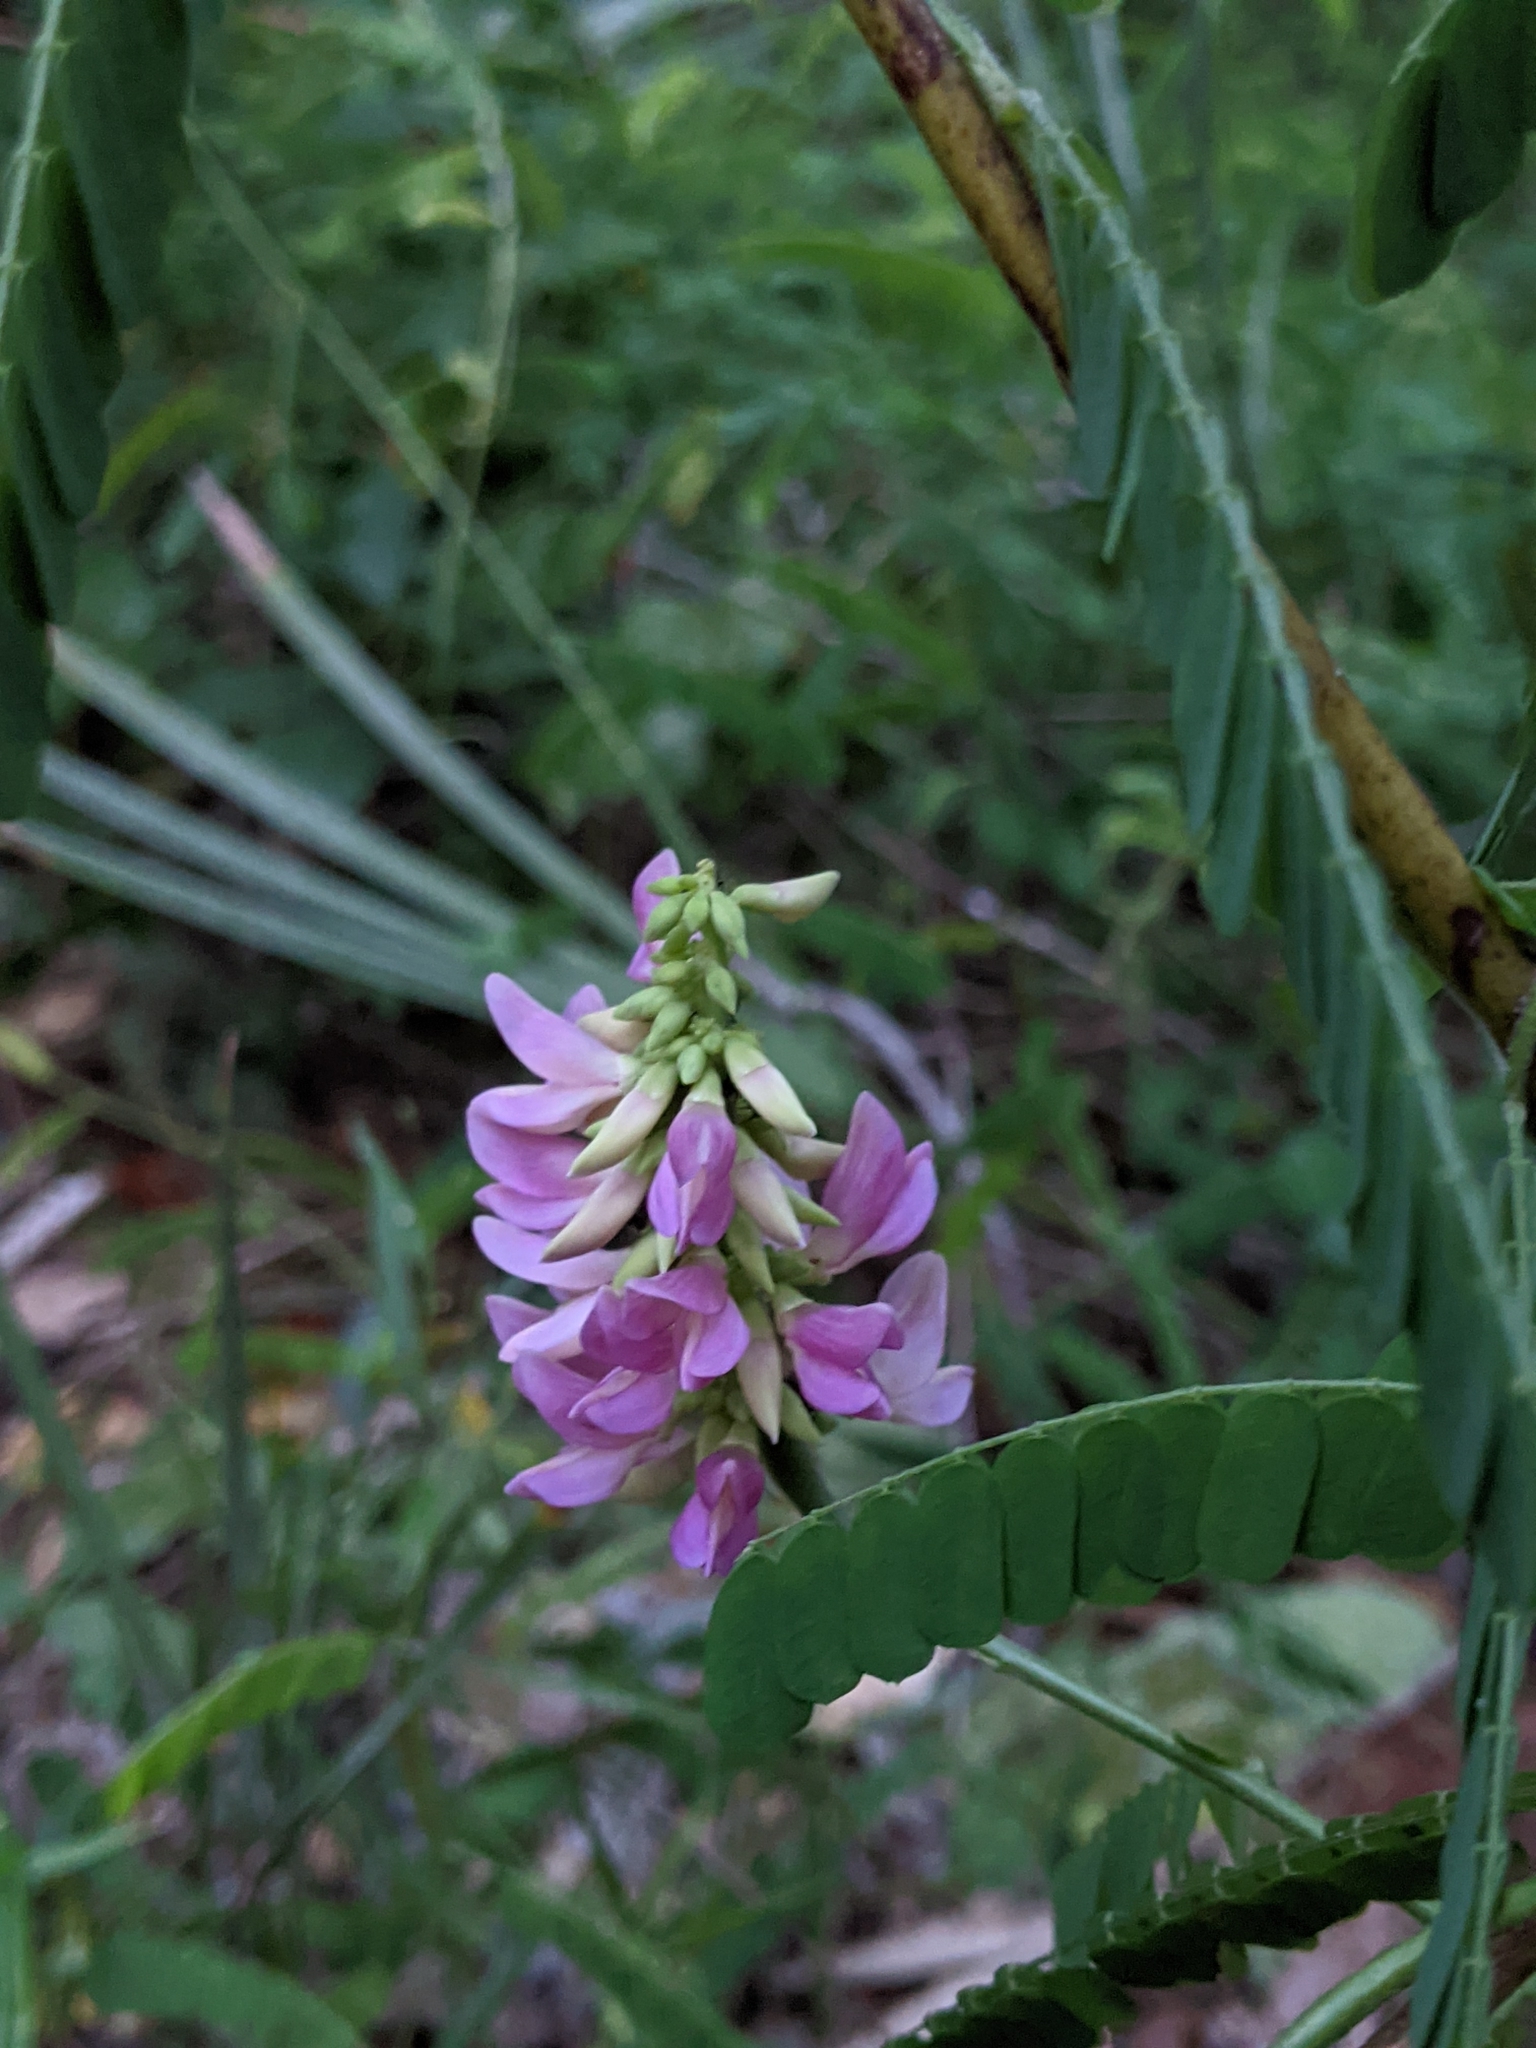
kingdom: Plantae
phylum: Tracheophyta
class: Magnoliopsida
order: Fabales
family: Fabaceae
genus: Abrus
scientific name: Abrus precatorius
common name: Rosarypea
